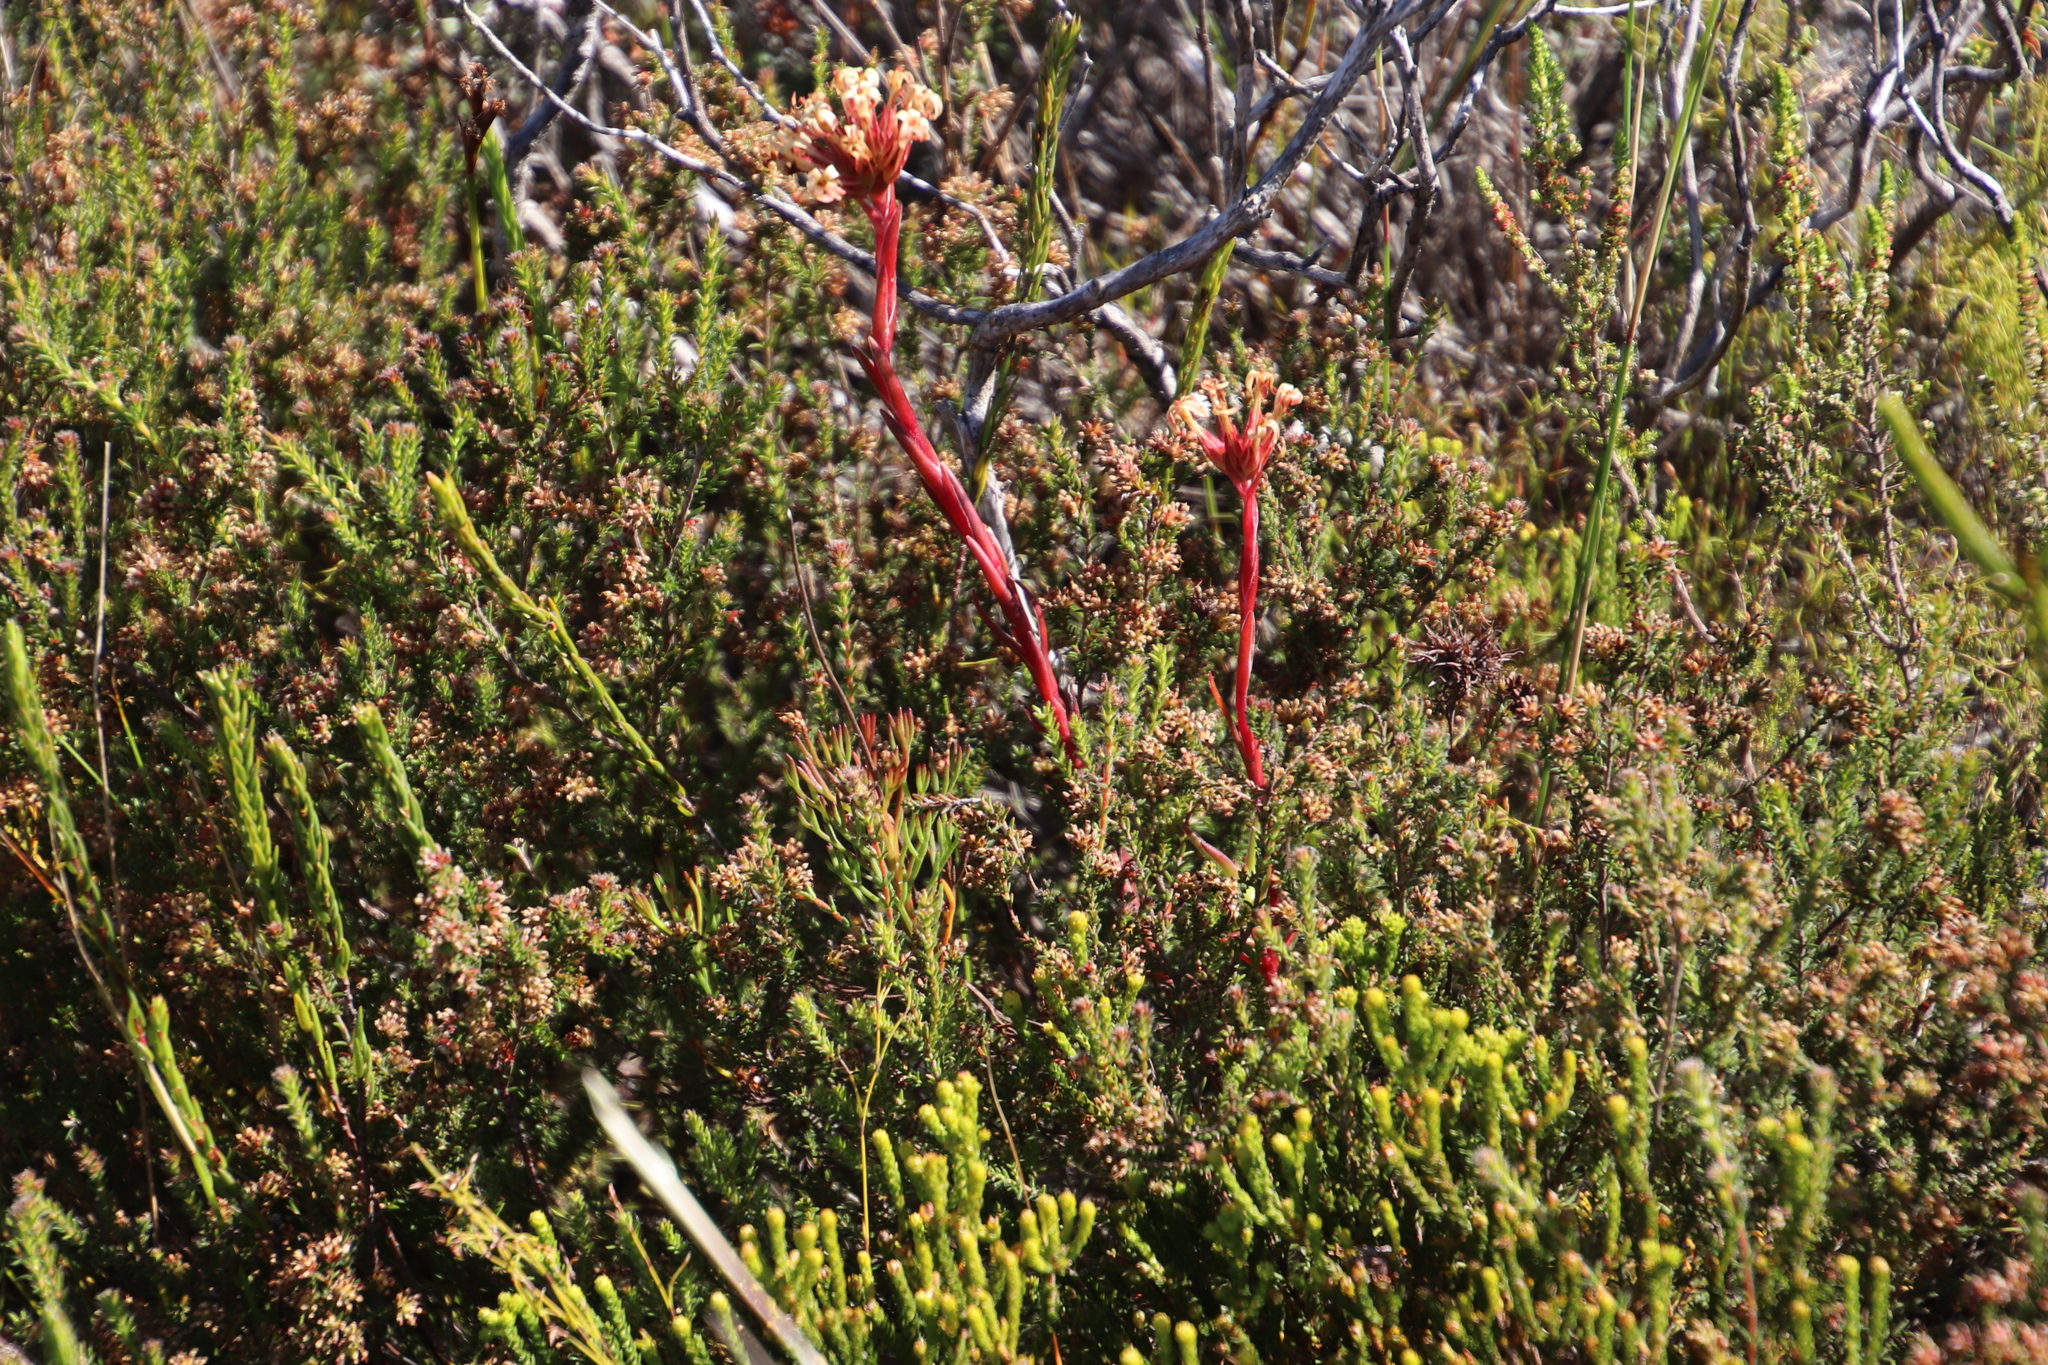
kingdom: Plantae
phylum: Tracheophyta
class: Magnoliopsida
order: Saxifragales
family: Crassulaceae
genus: Crassula
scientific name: Crassula fascicularis
